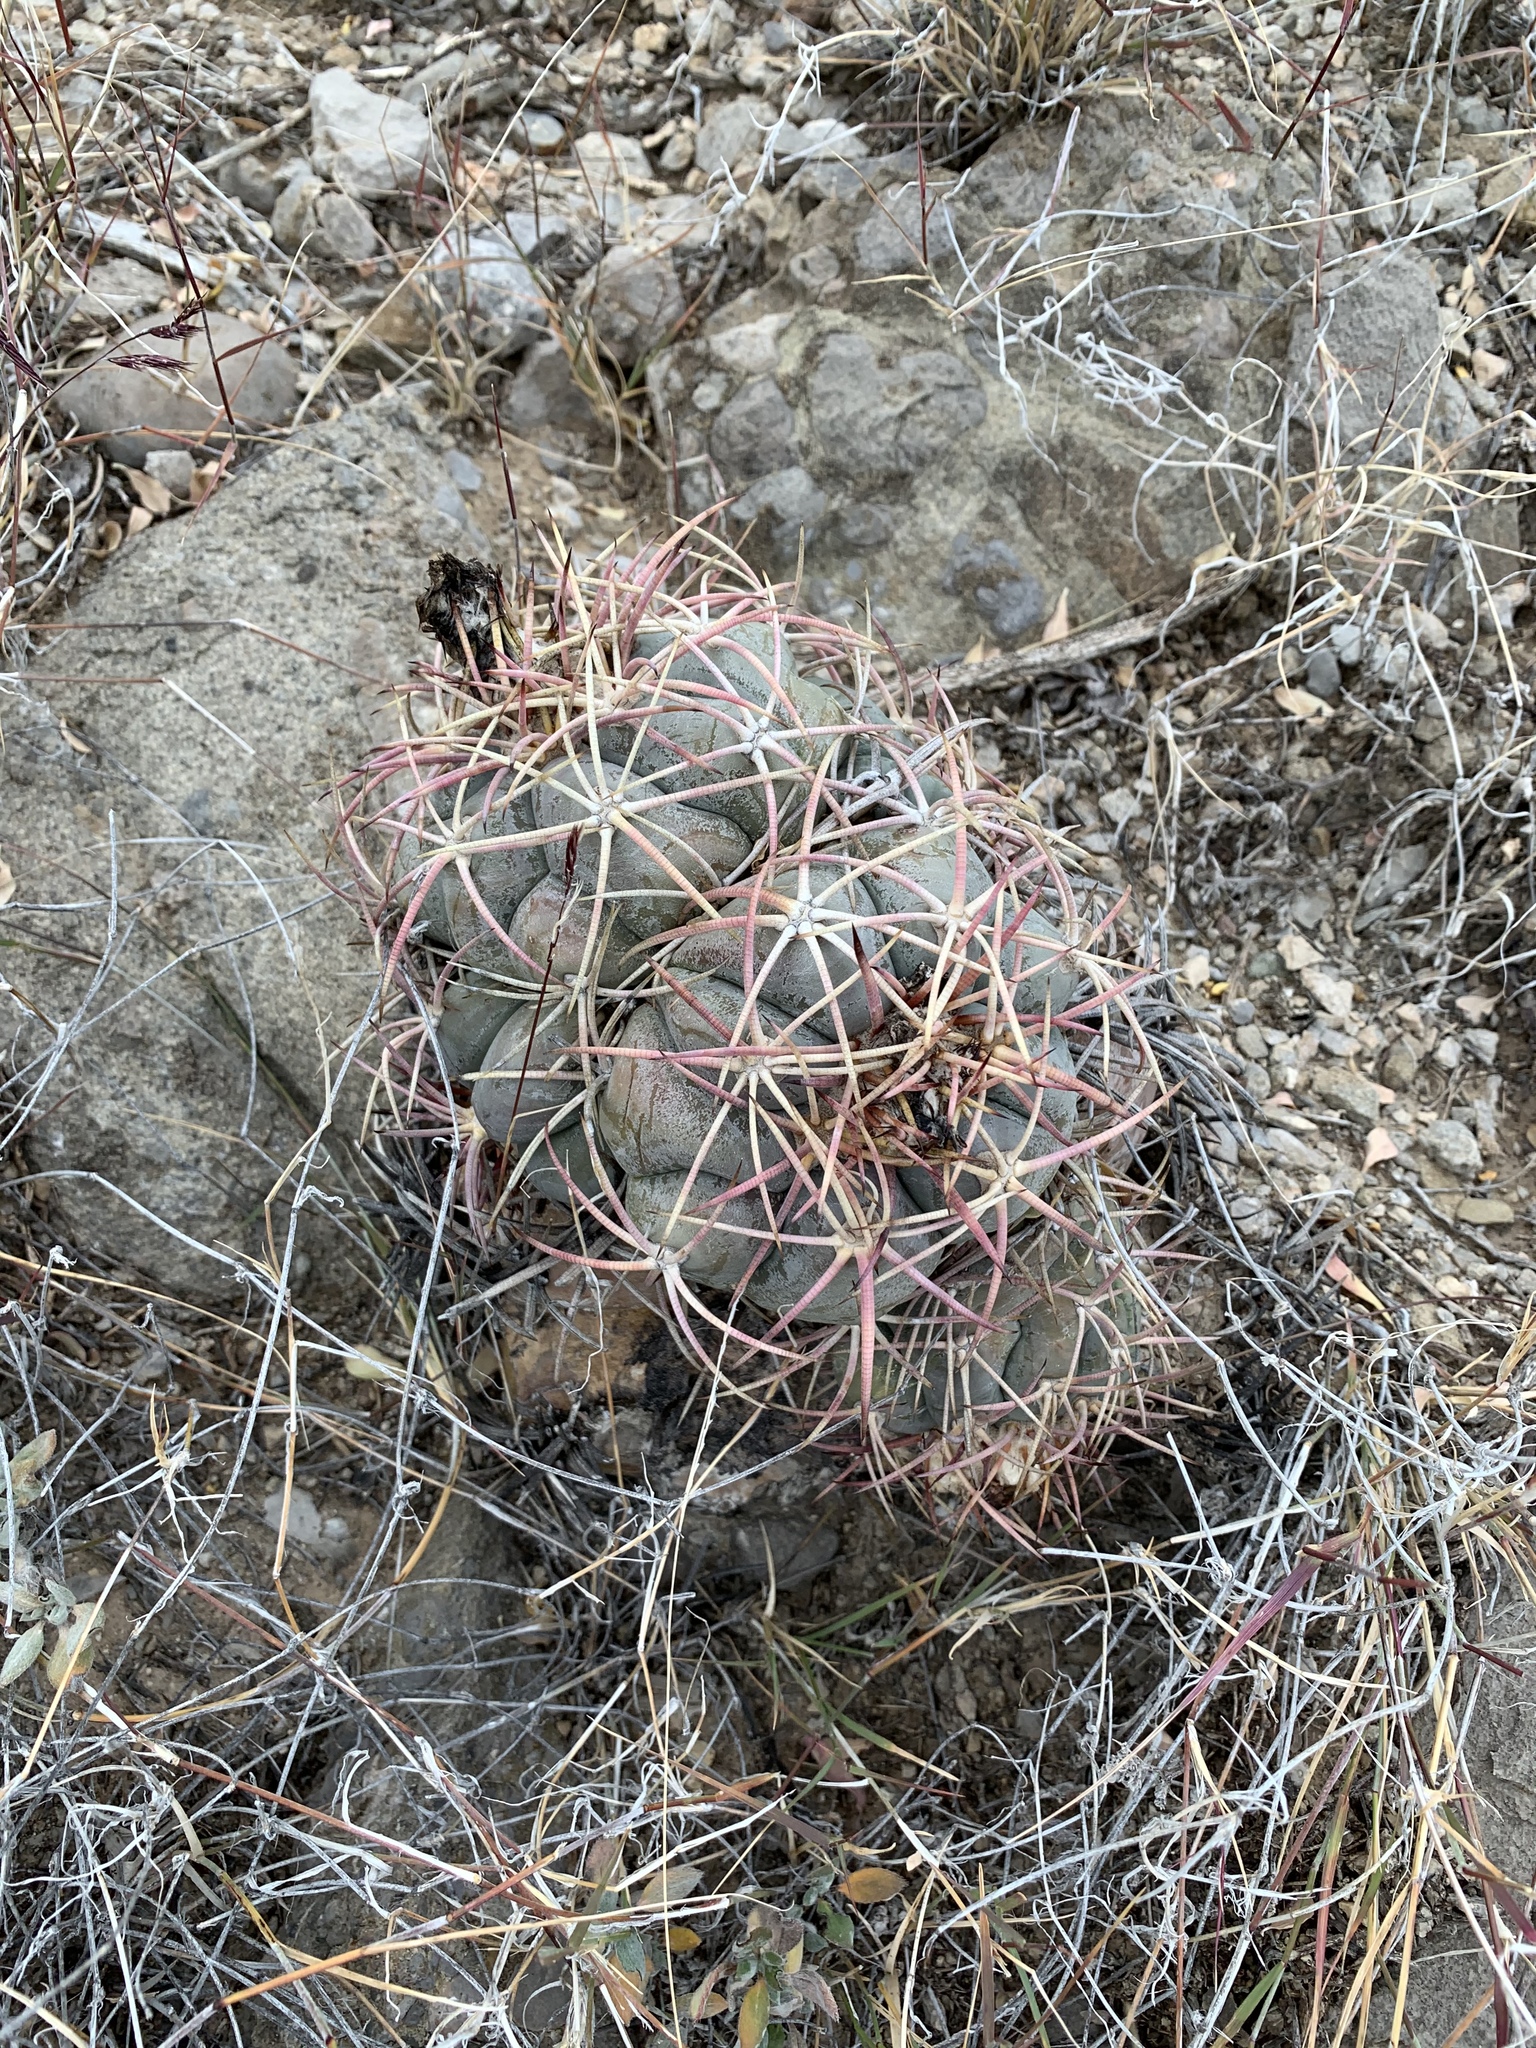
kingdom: Plantae
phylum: Tracheophyta
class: Magnoliopsida
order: Caryophyllales
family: Cactaceae
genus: Echinocactus
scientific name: Echinocactus horizonthalonius
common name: Devilshead
